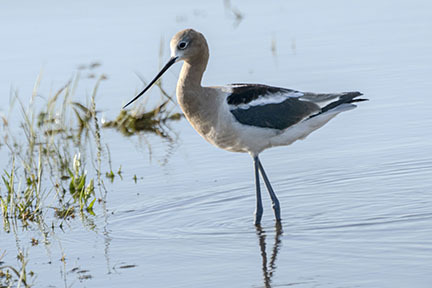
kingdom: Animalia
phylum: Chordata
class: Aves
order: Charadriiformes
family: Recurvirostridae
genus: Recurvirostra
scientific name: Recurvirostra americana
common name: American avocet
